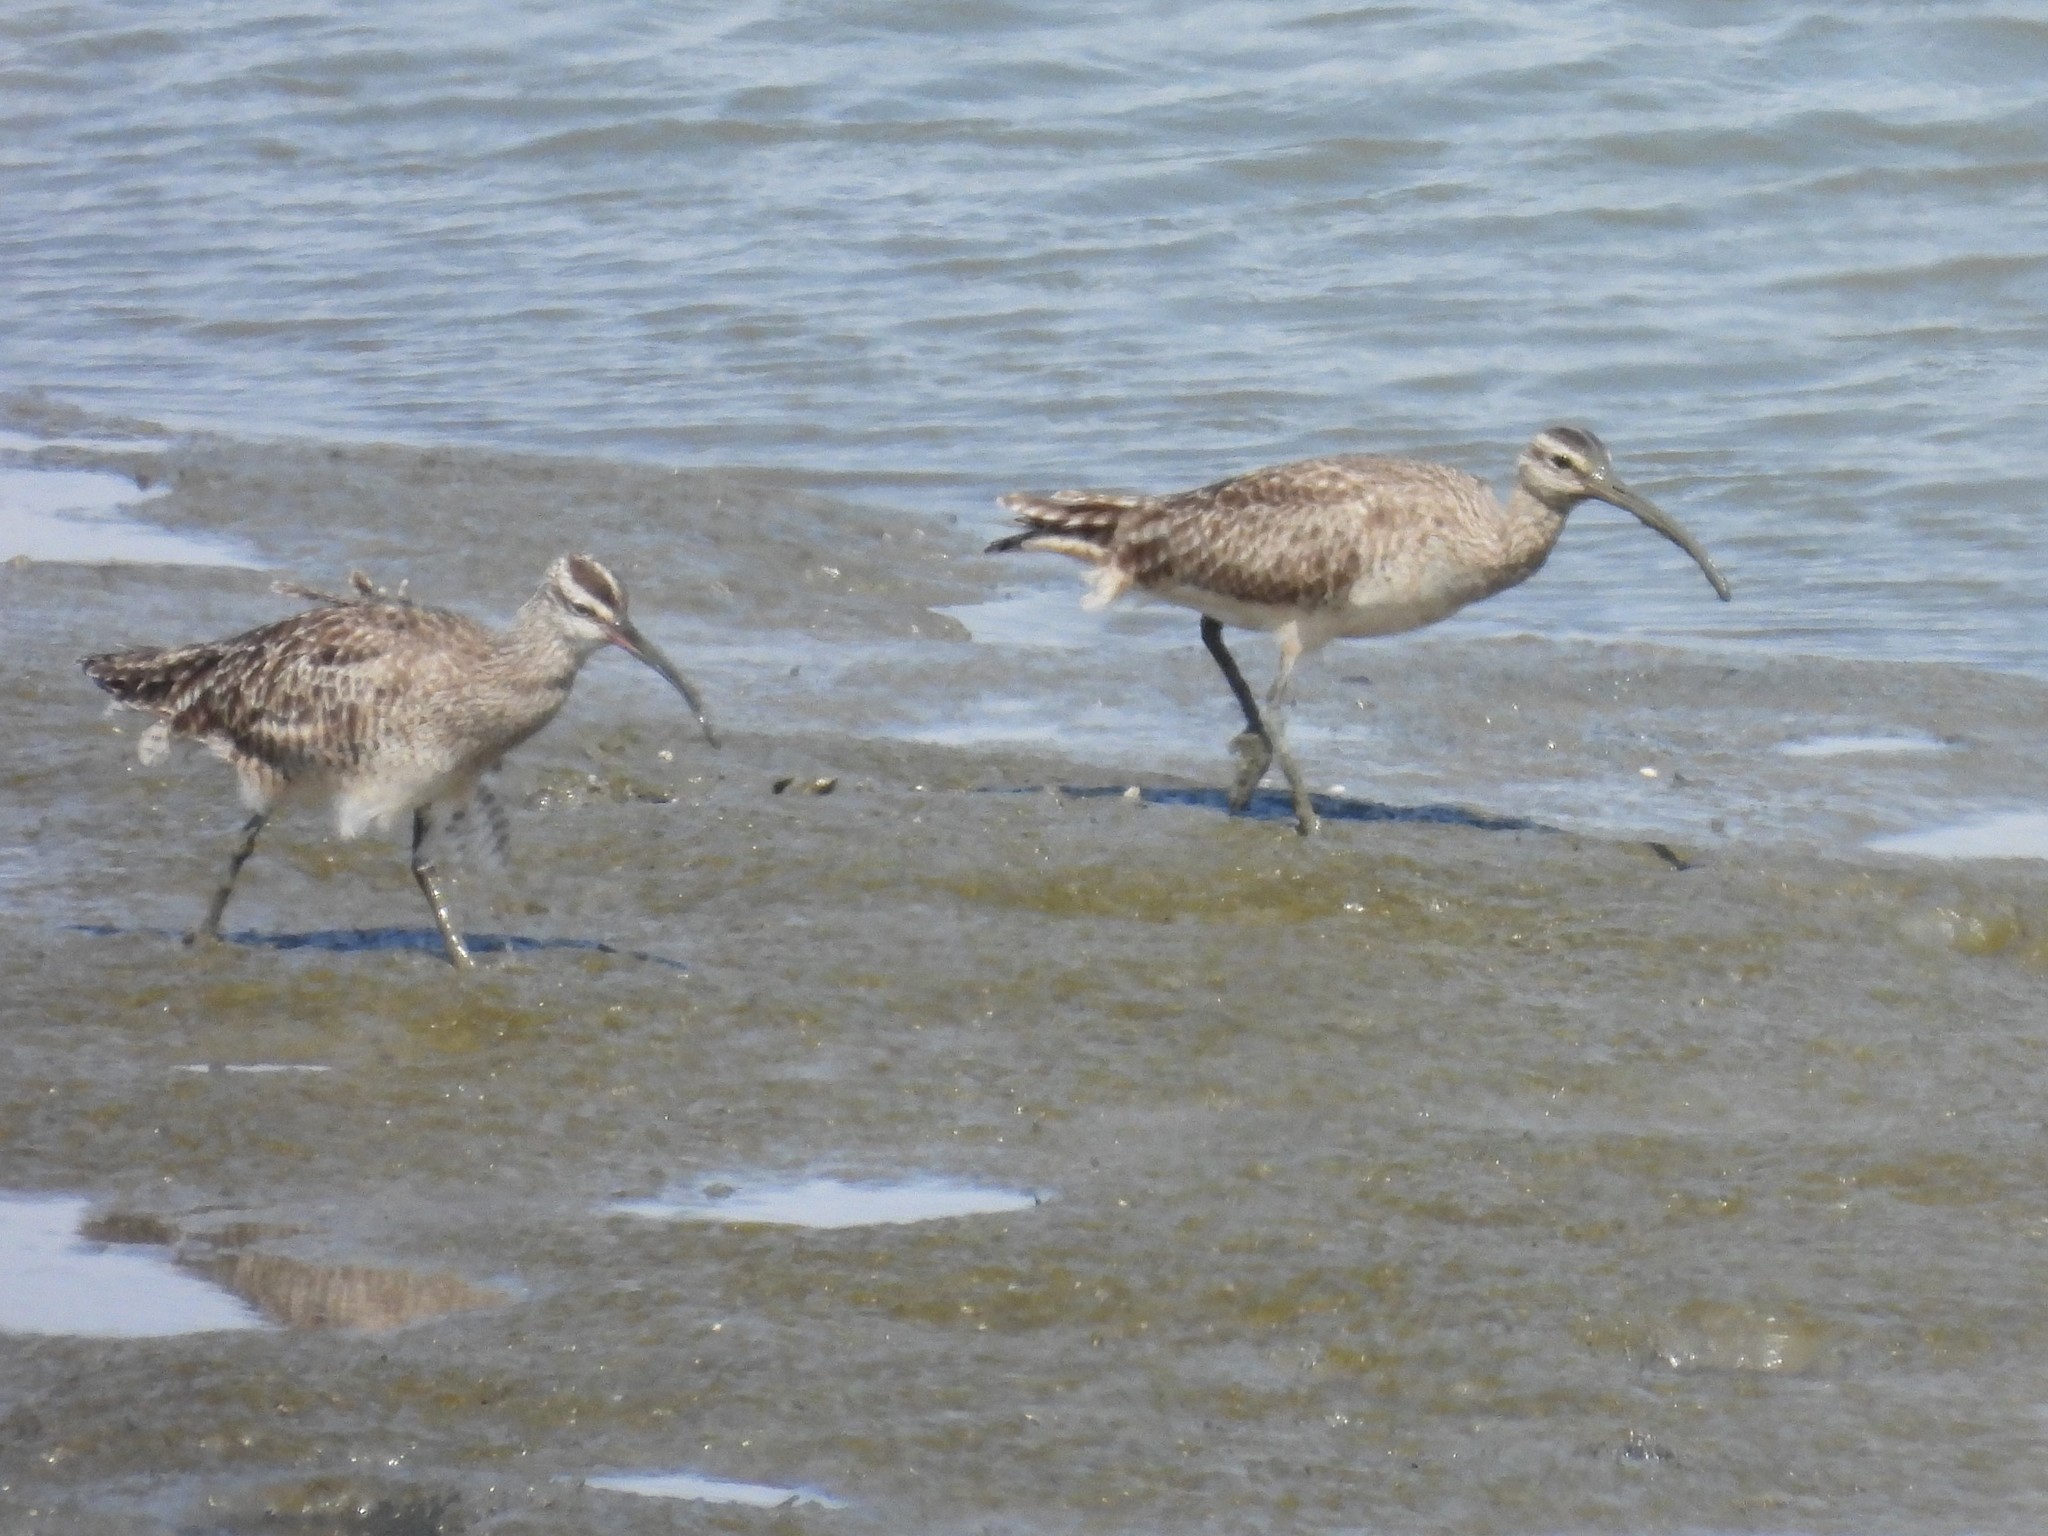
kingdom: Animalia
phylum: Chordata
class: Aves
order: Charadriiformes
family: Scolopacidae
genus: Numenius
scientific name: Numenius phaeopus
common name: Whimbrel
